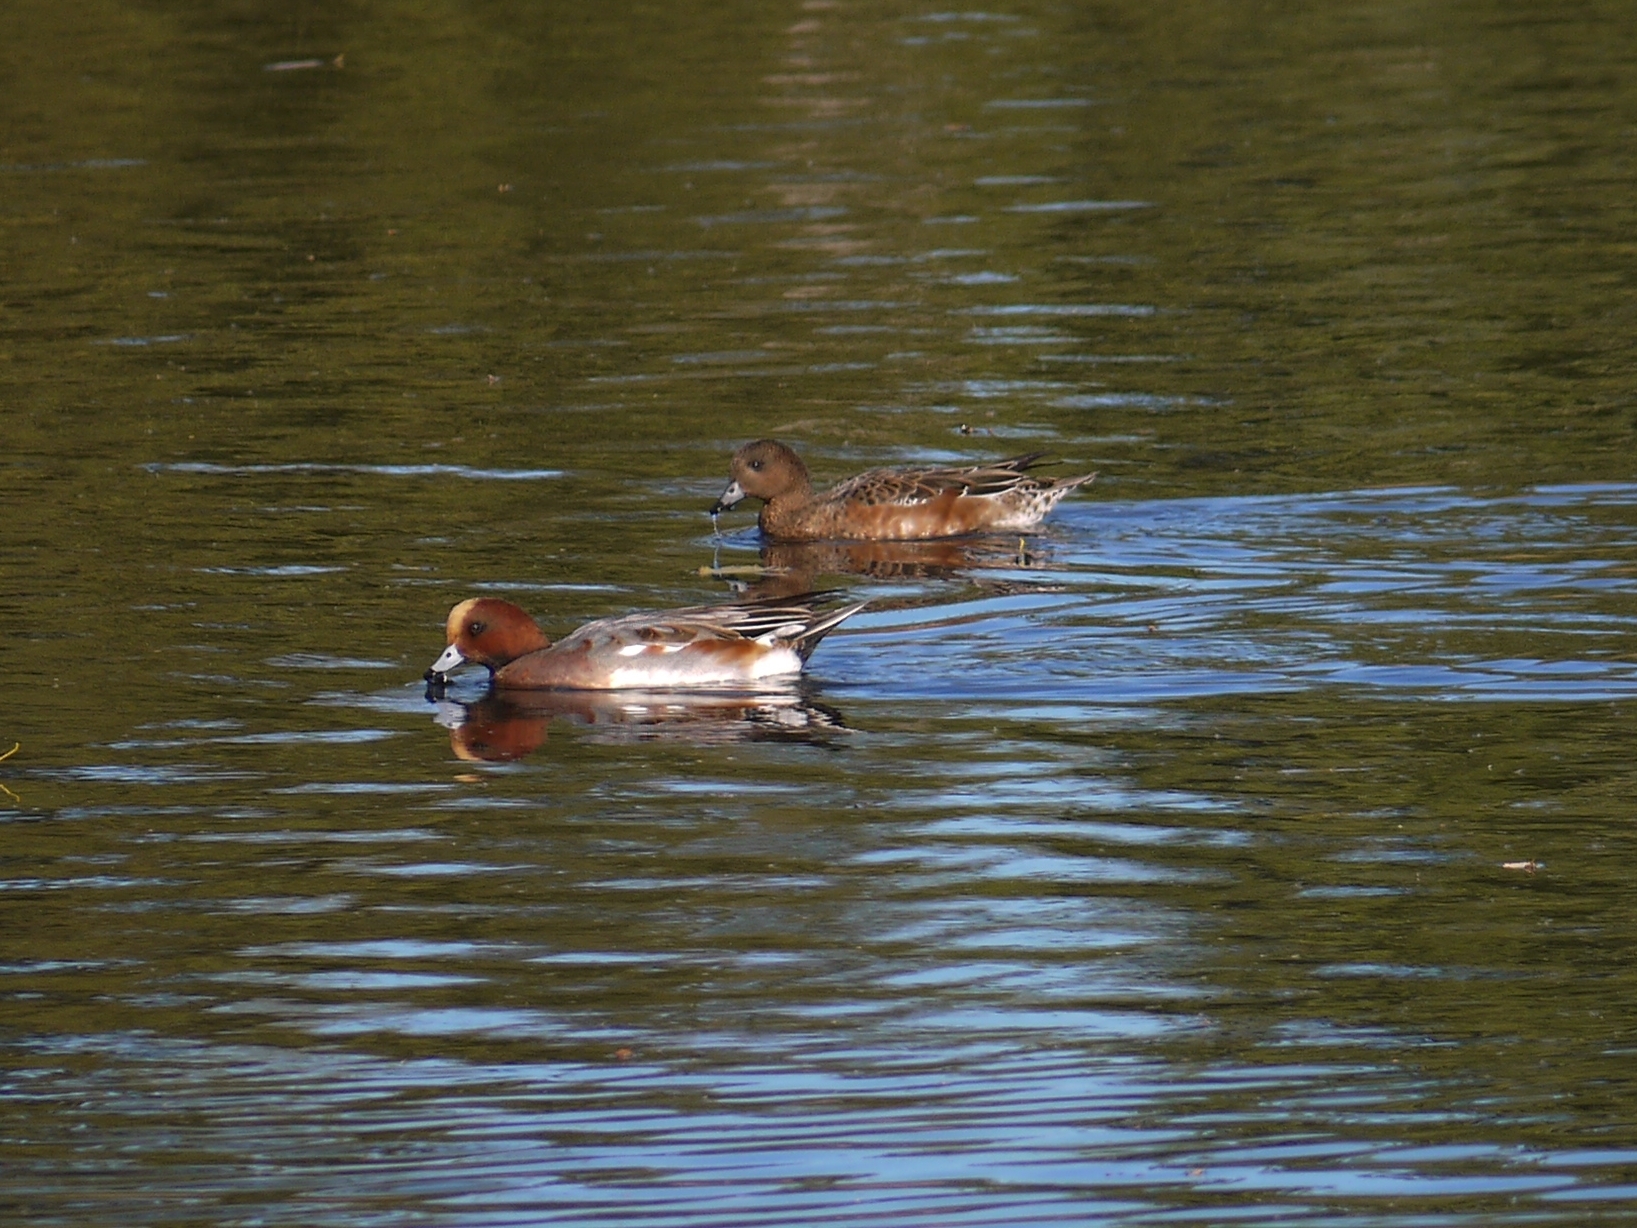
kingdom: Animalia
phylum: Chordata
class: Aves
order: Anseriformes
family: Anatidae
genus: Mareca
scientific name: Mareca penelope
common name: Eurasian wigeon
